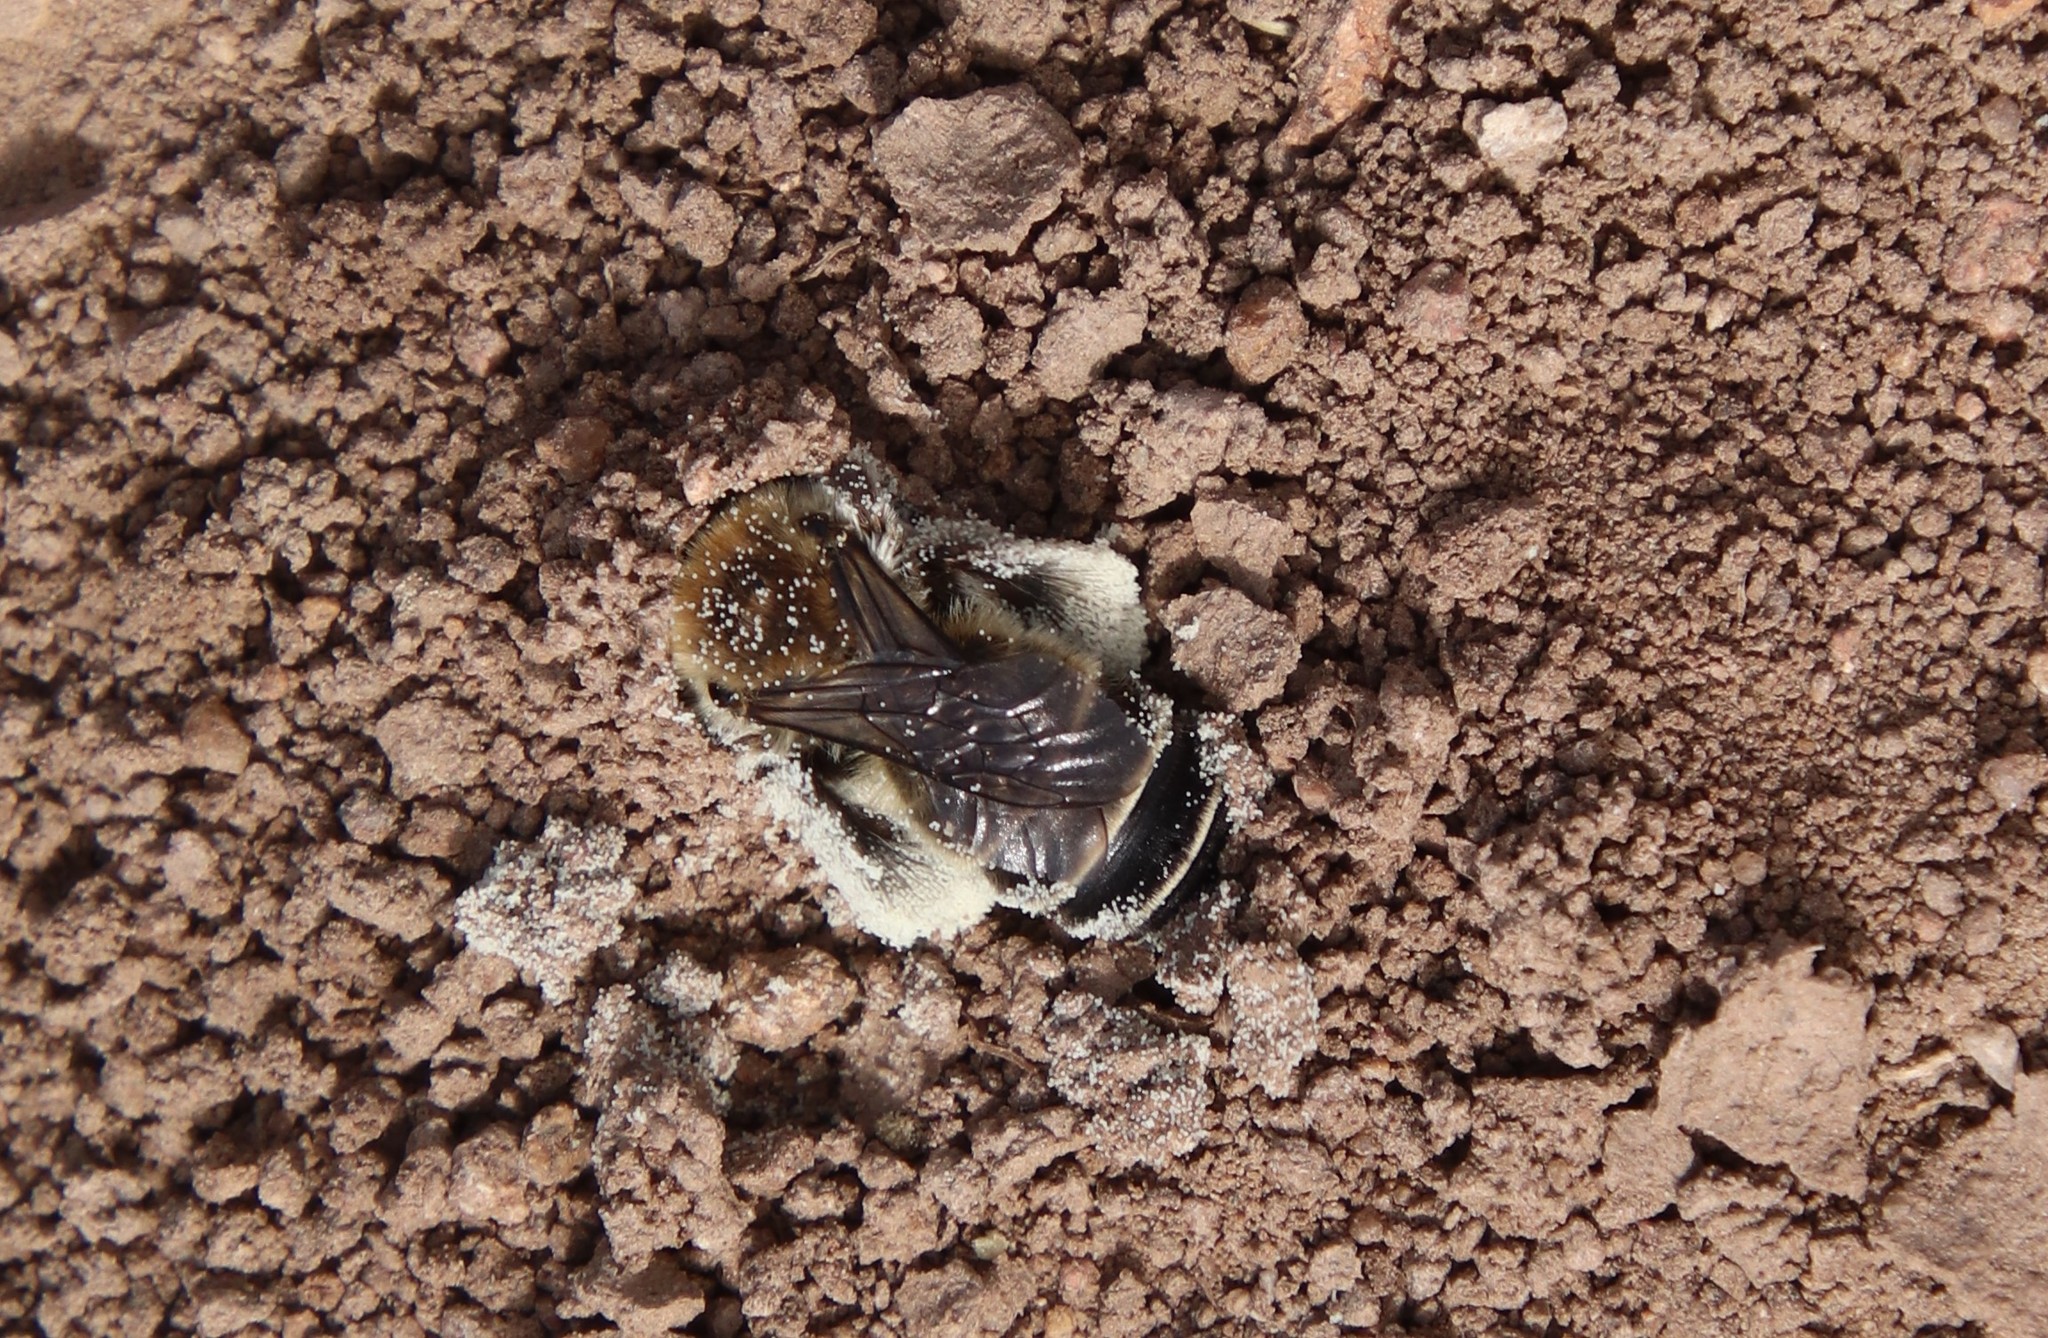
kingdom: Animalia
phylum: Arthropoda
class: Insecta
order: Hymenoptera
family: Apidae
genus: Diadasia
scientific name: Diadasia bituberculata
